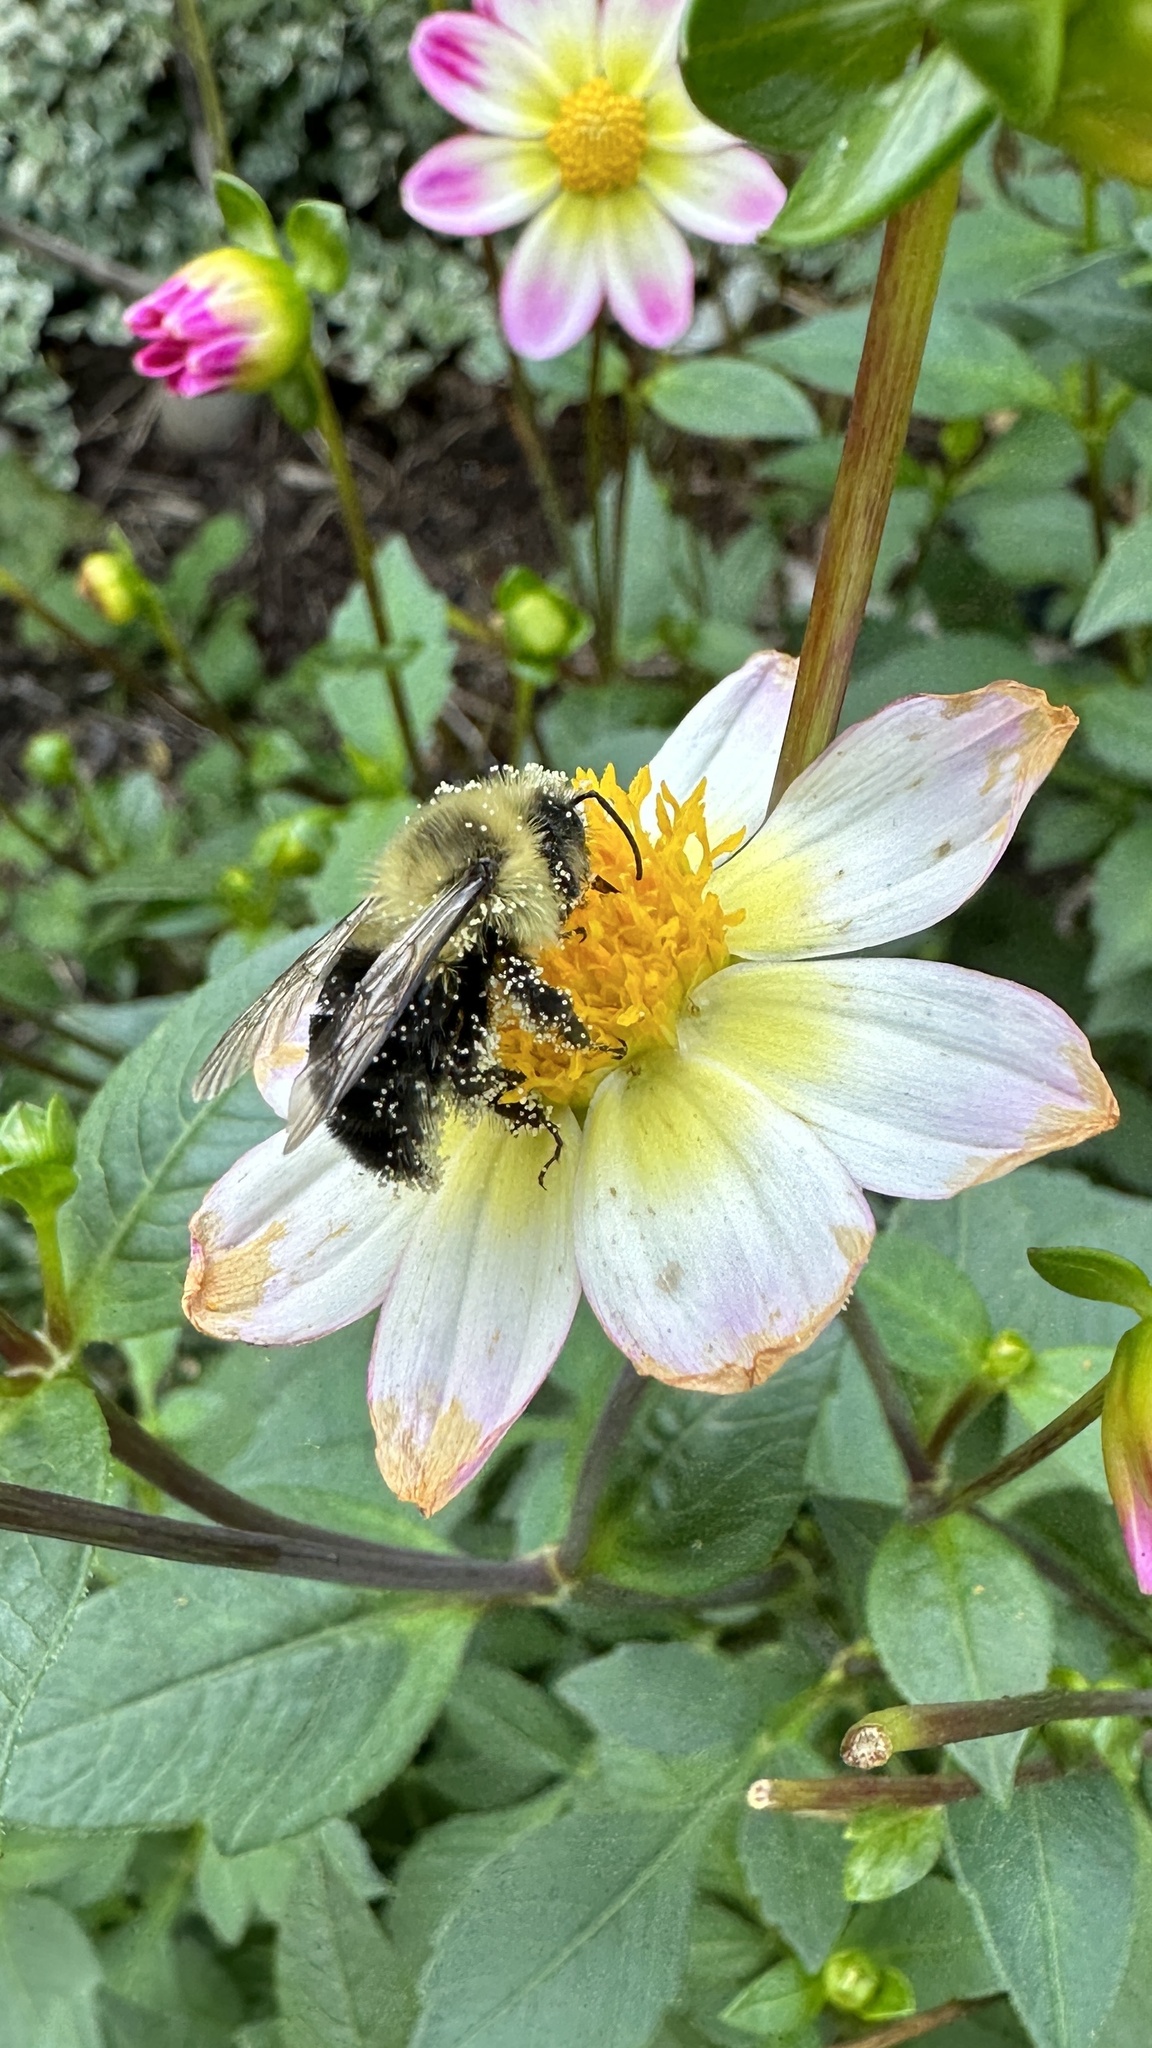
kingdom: Animalia
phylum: Arthropoda
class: Insecta
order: Hymenoptera
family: Apidae
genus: Bombus
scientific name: Bombus impatiens
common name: Common eastern bumble bee
